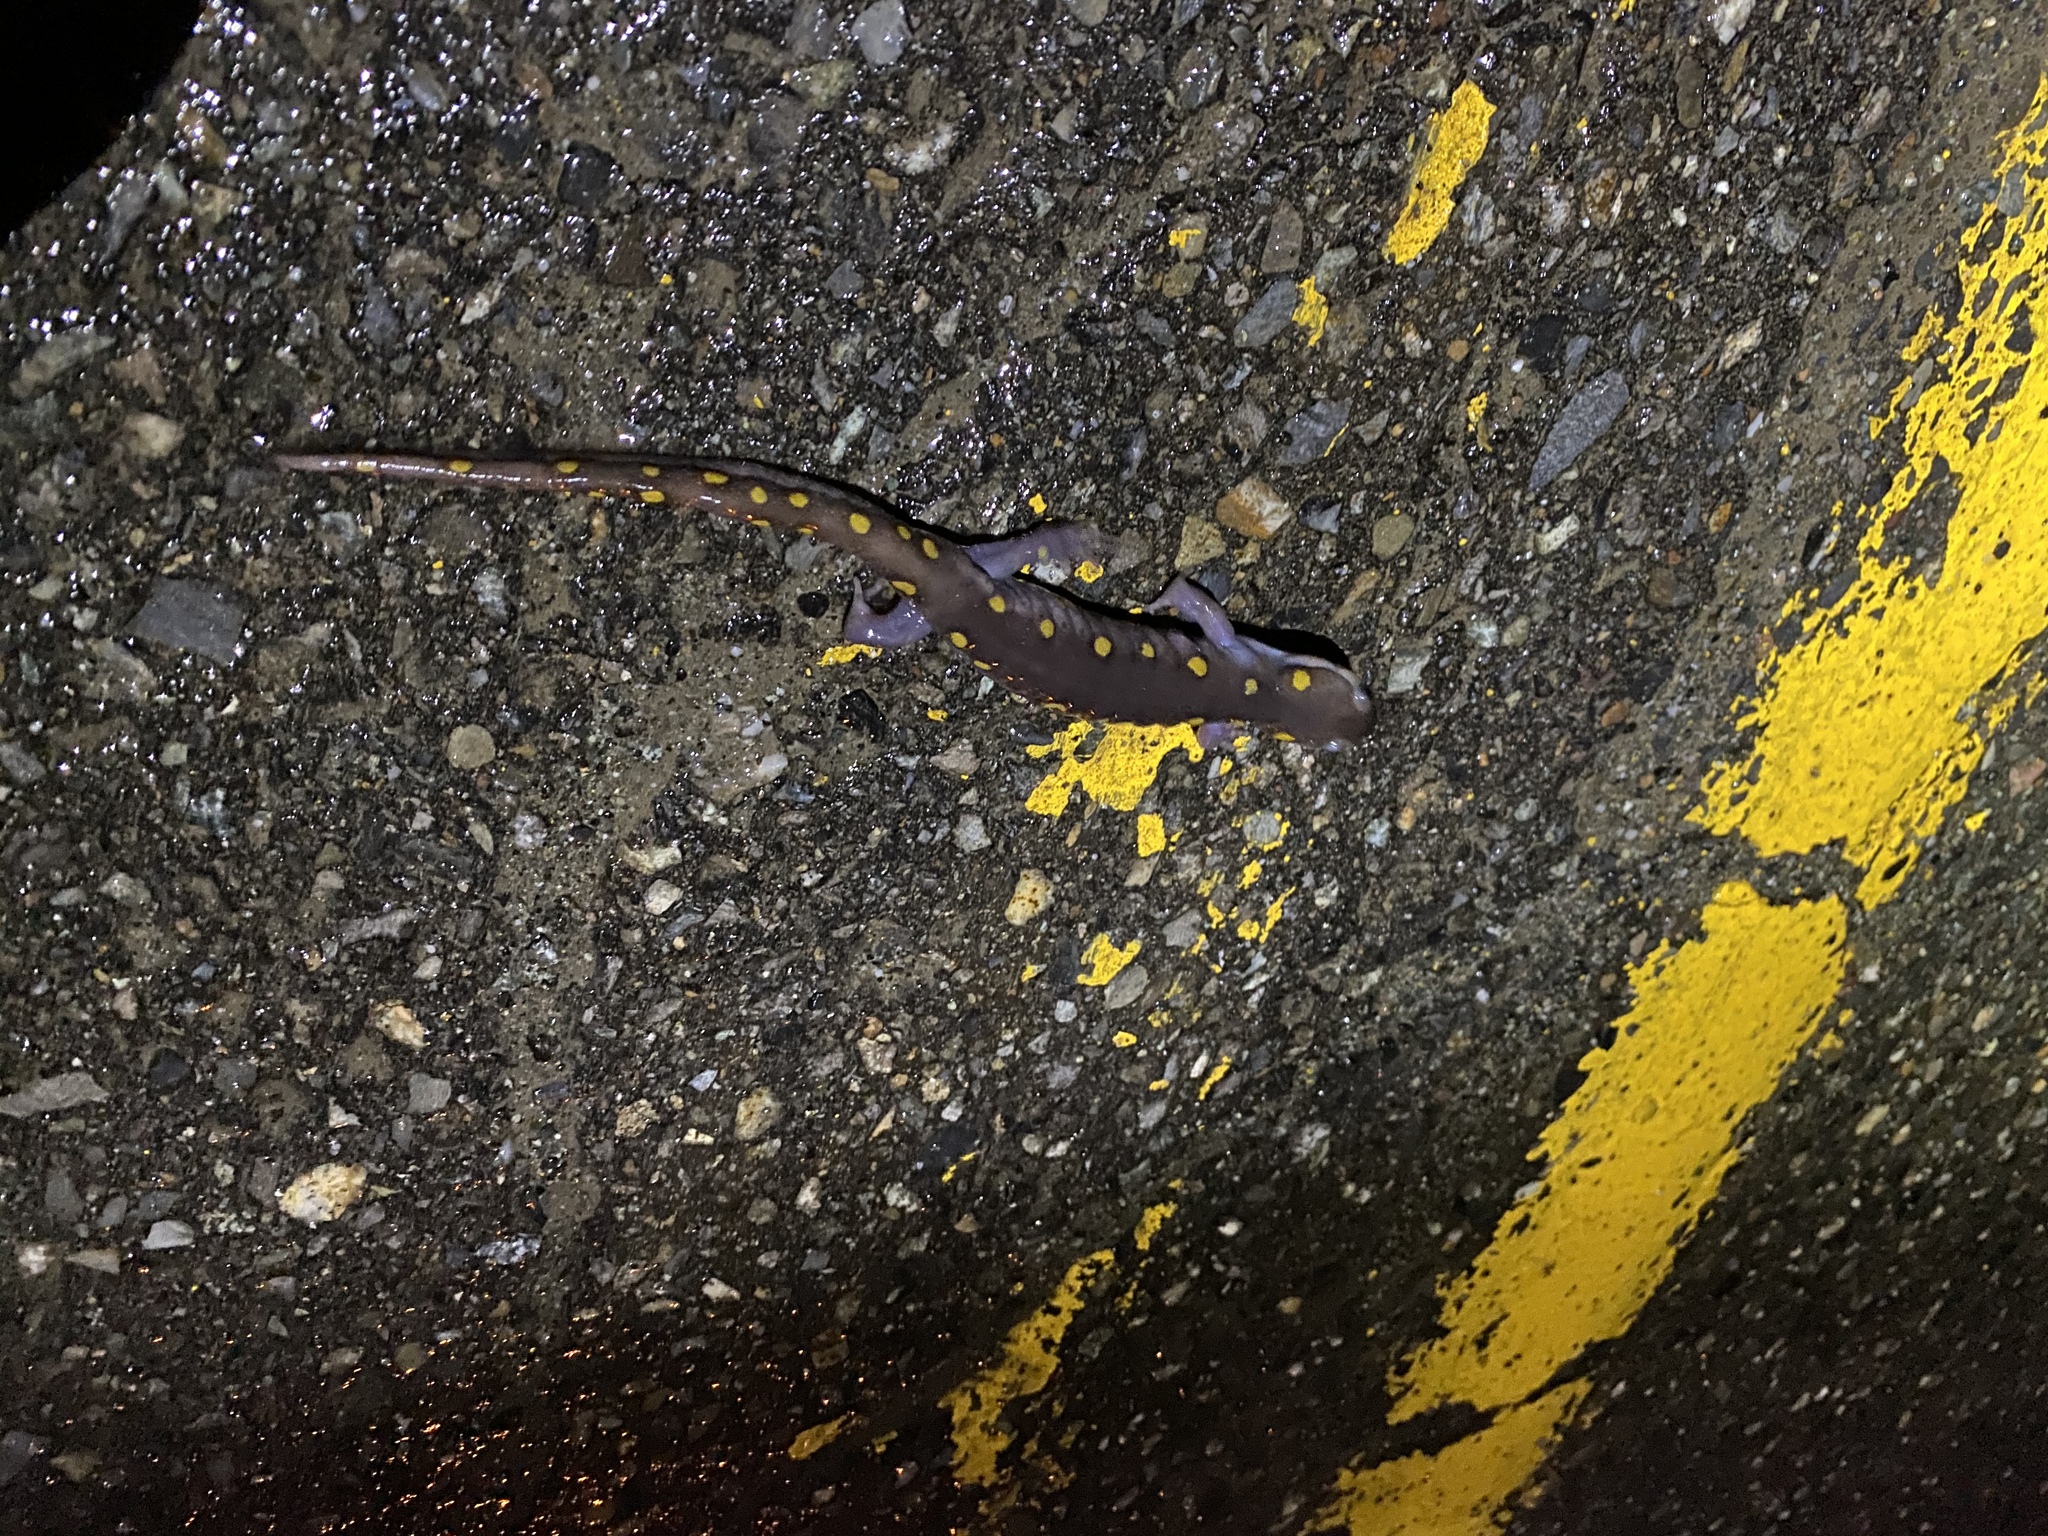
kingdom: Animalia
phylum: Chordata
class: Amphibia
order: Caudata
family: Ambystomatidae
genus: Ambystoma
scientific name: Ambystoma maculatum
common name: Spotted salamander
